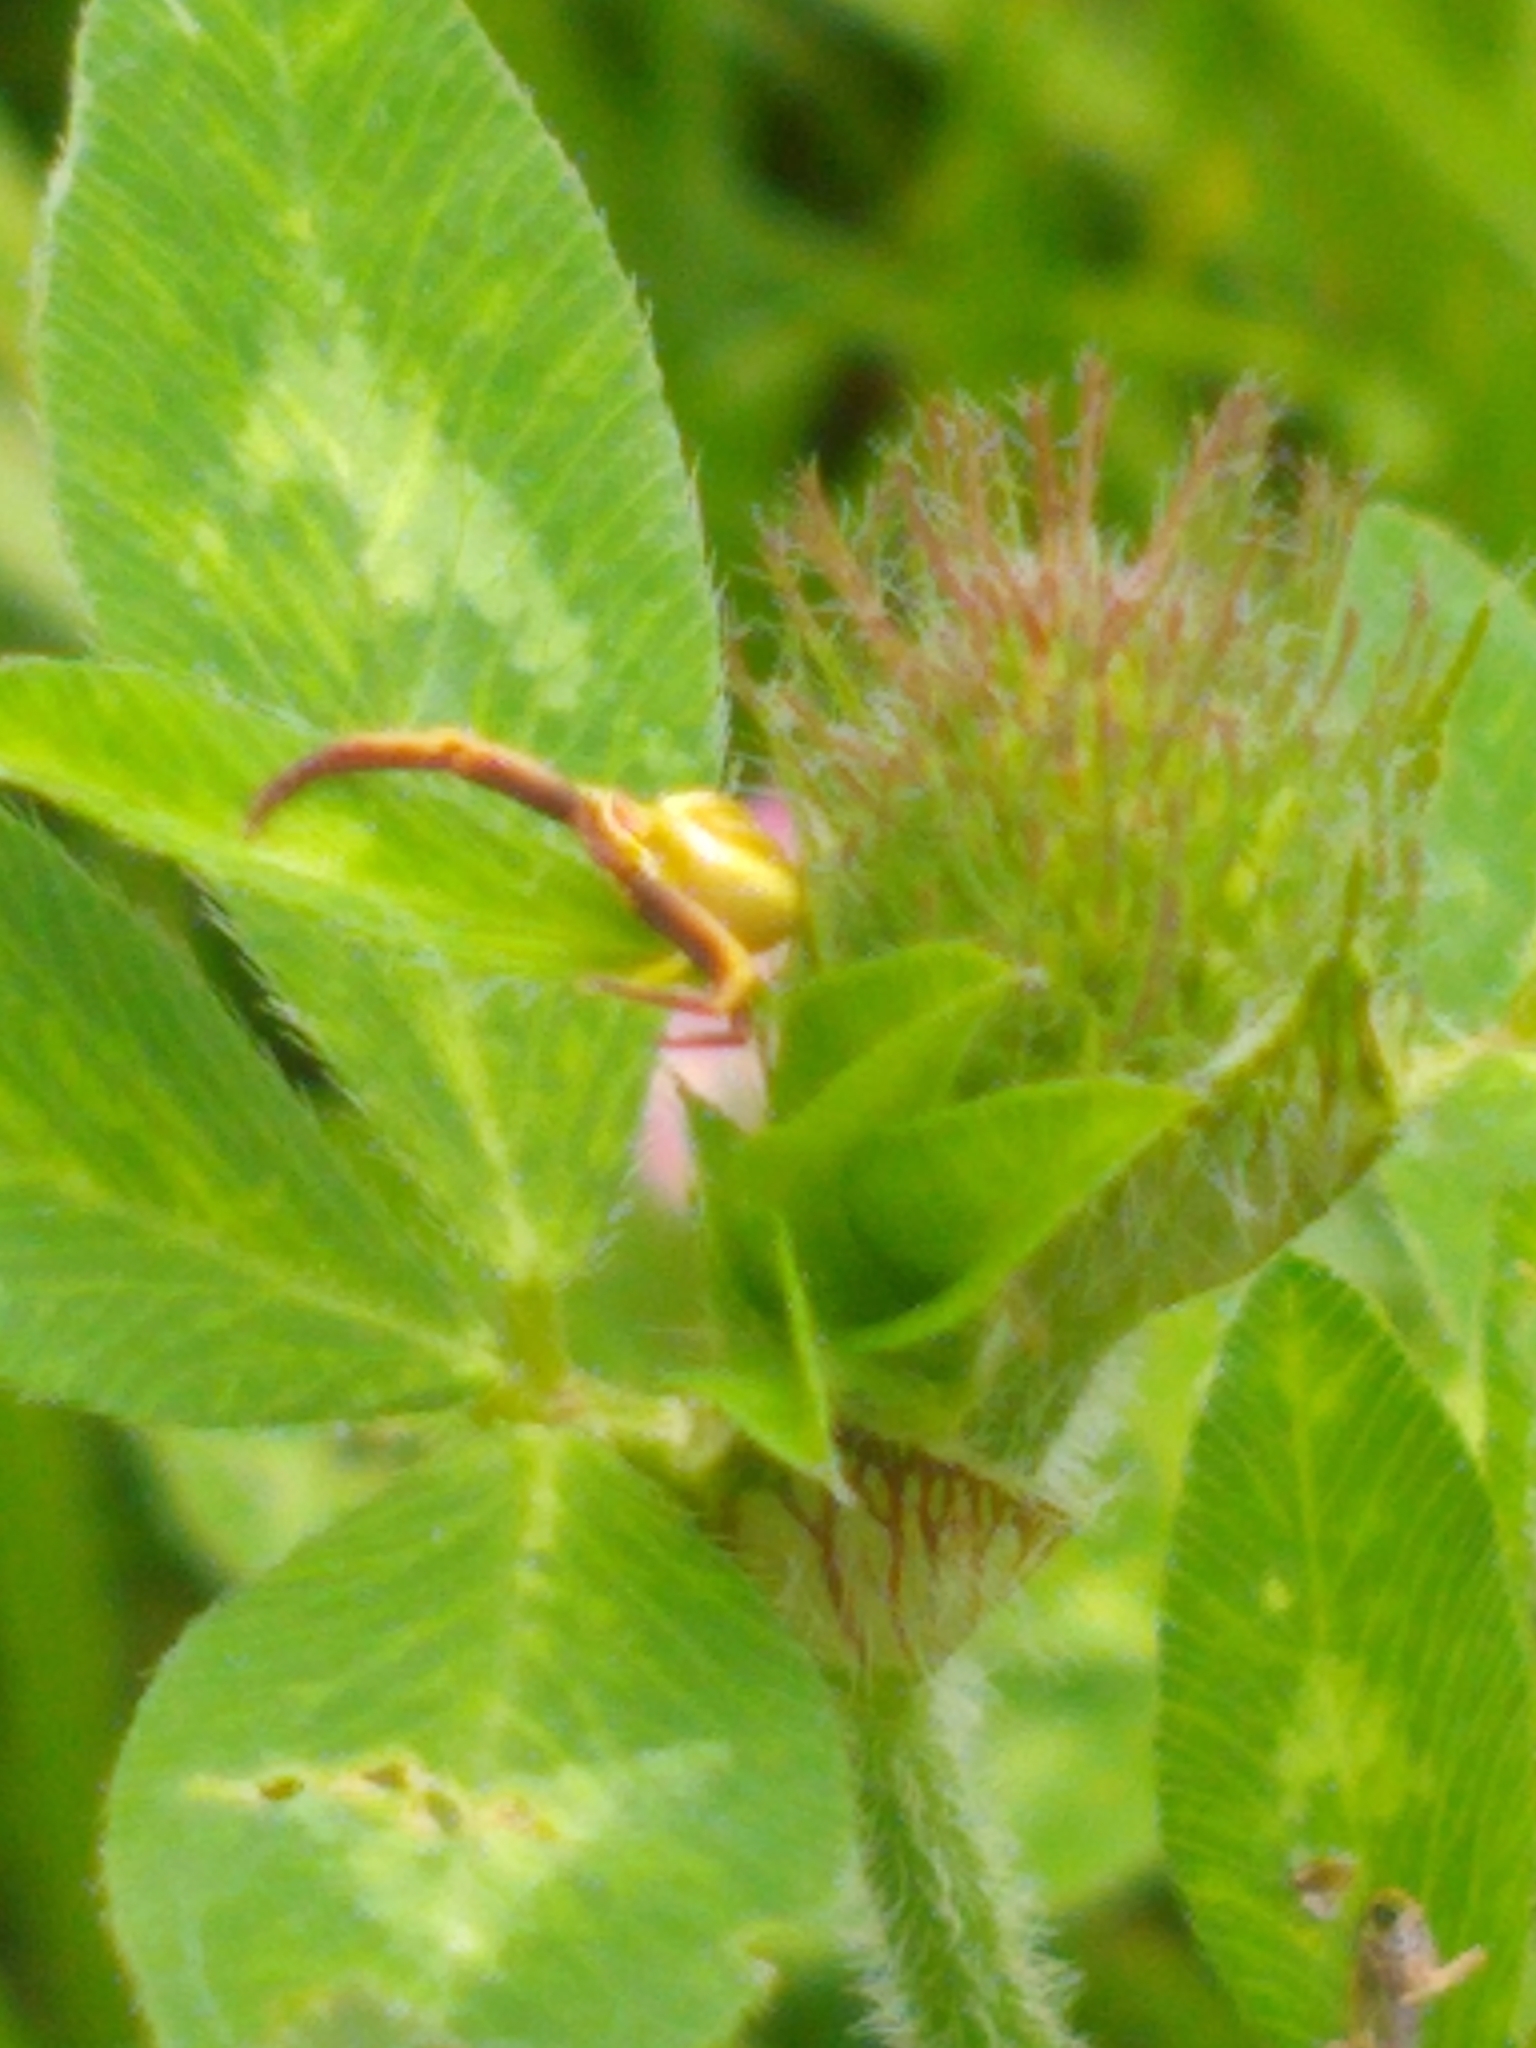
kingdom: Animalia
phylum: Arthropoda
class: Arachnida
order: Araneae
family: Thomisidae
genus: Misumenoides
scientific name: Misumenoides formosipes
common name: White-banded crab spider
